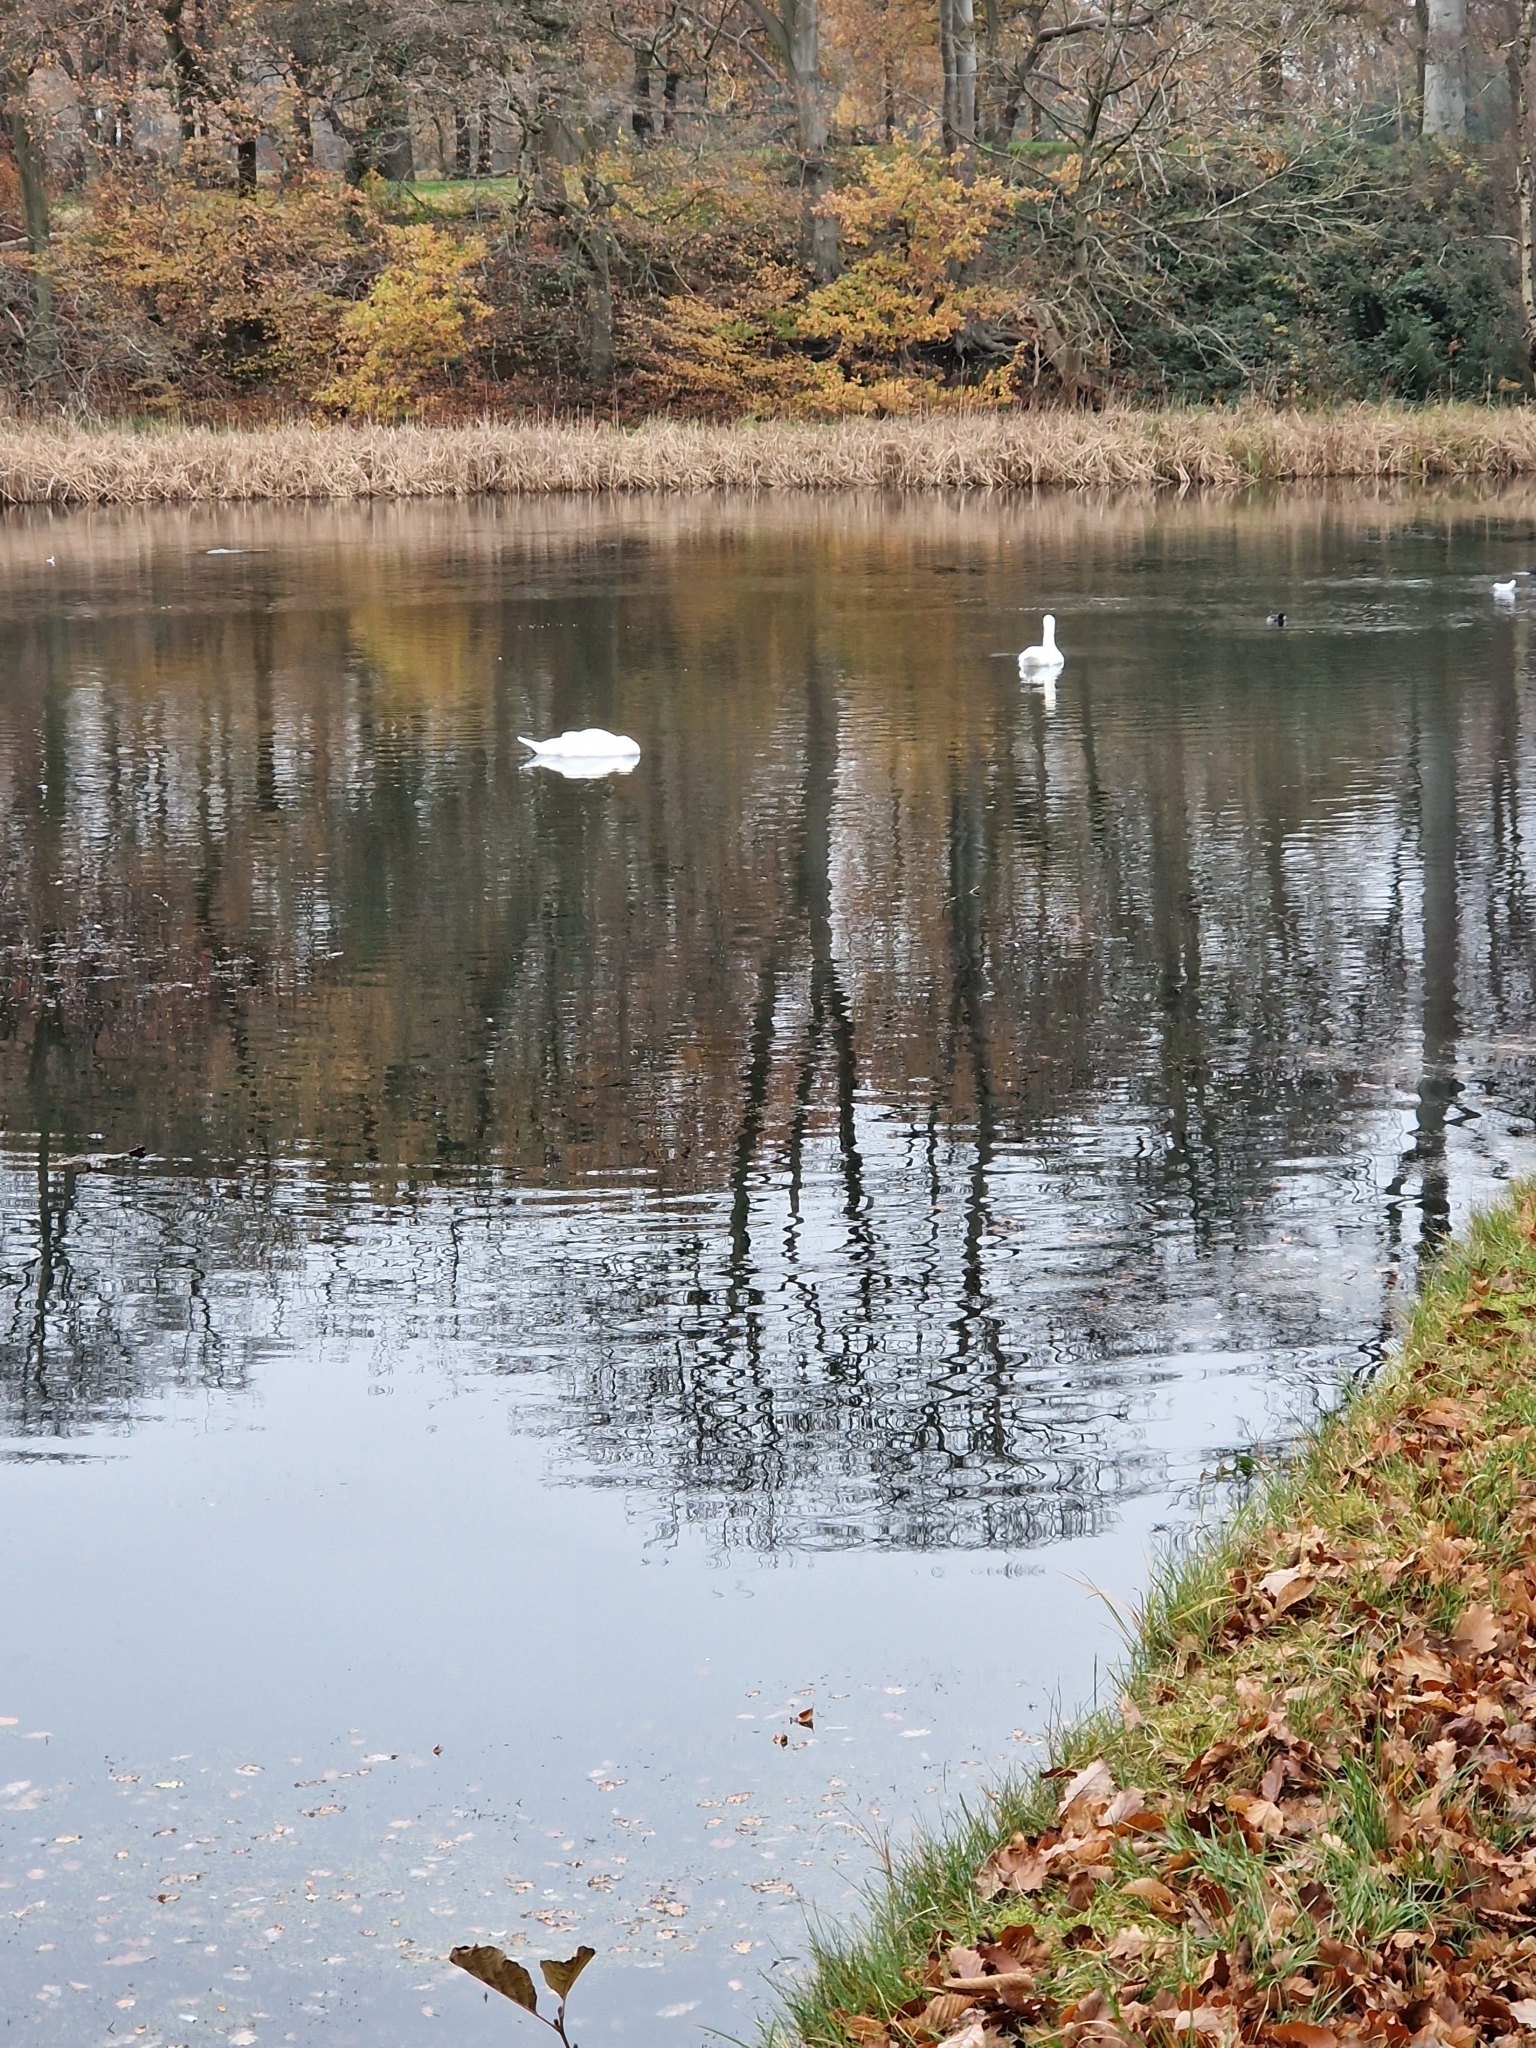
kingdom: Animalia
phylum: Chordata
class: Aves
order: Anseriformes
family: Anatidae
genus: Cygnus
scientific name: Cygnus olor
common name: Mute swan
